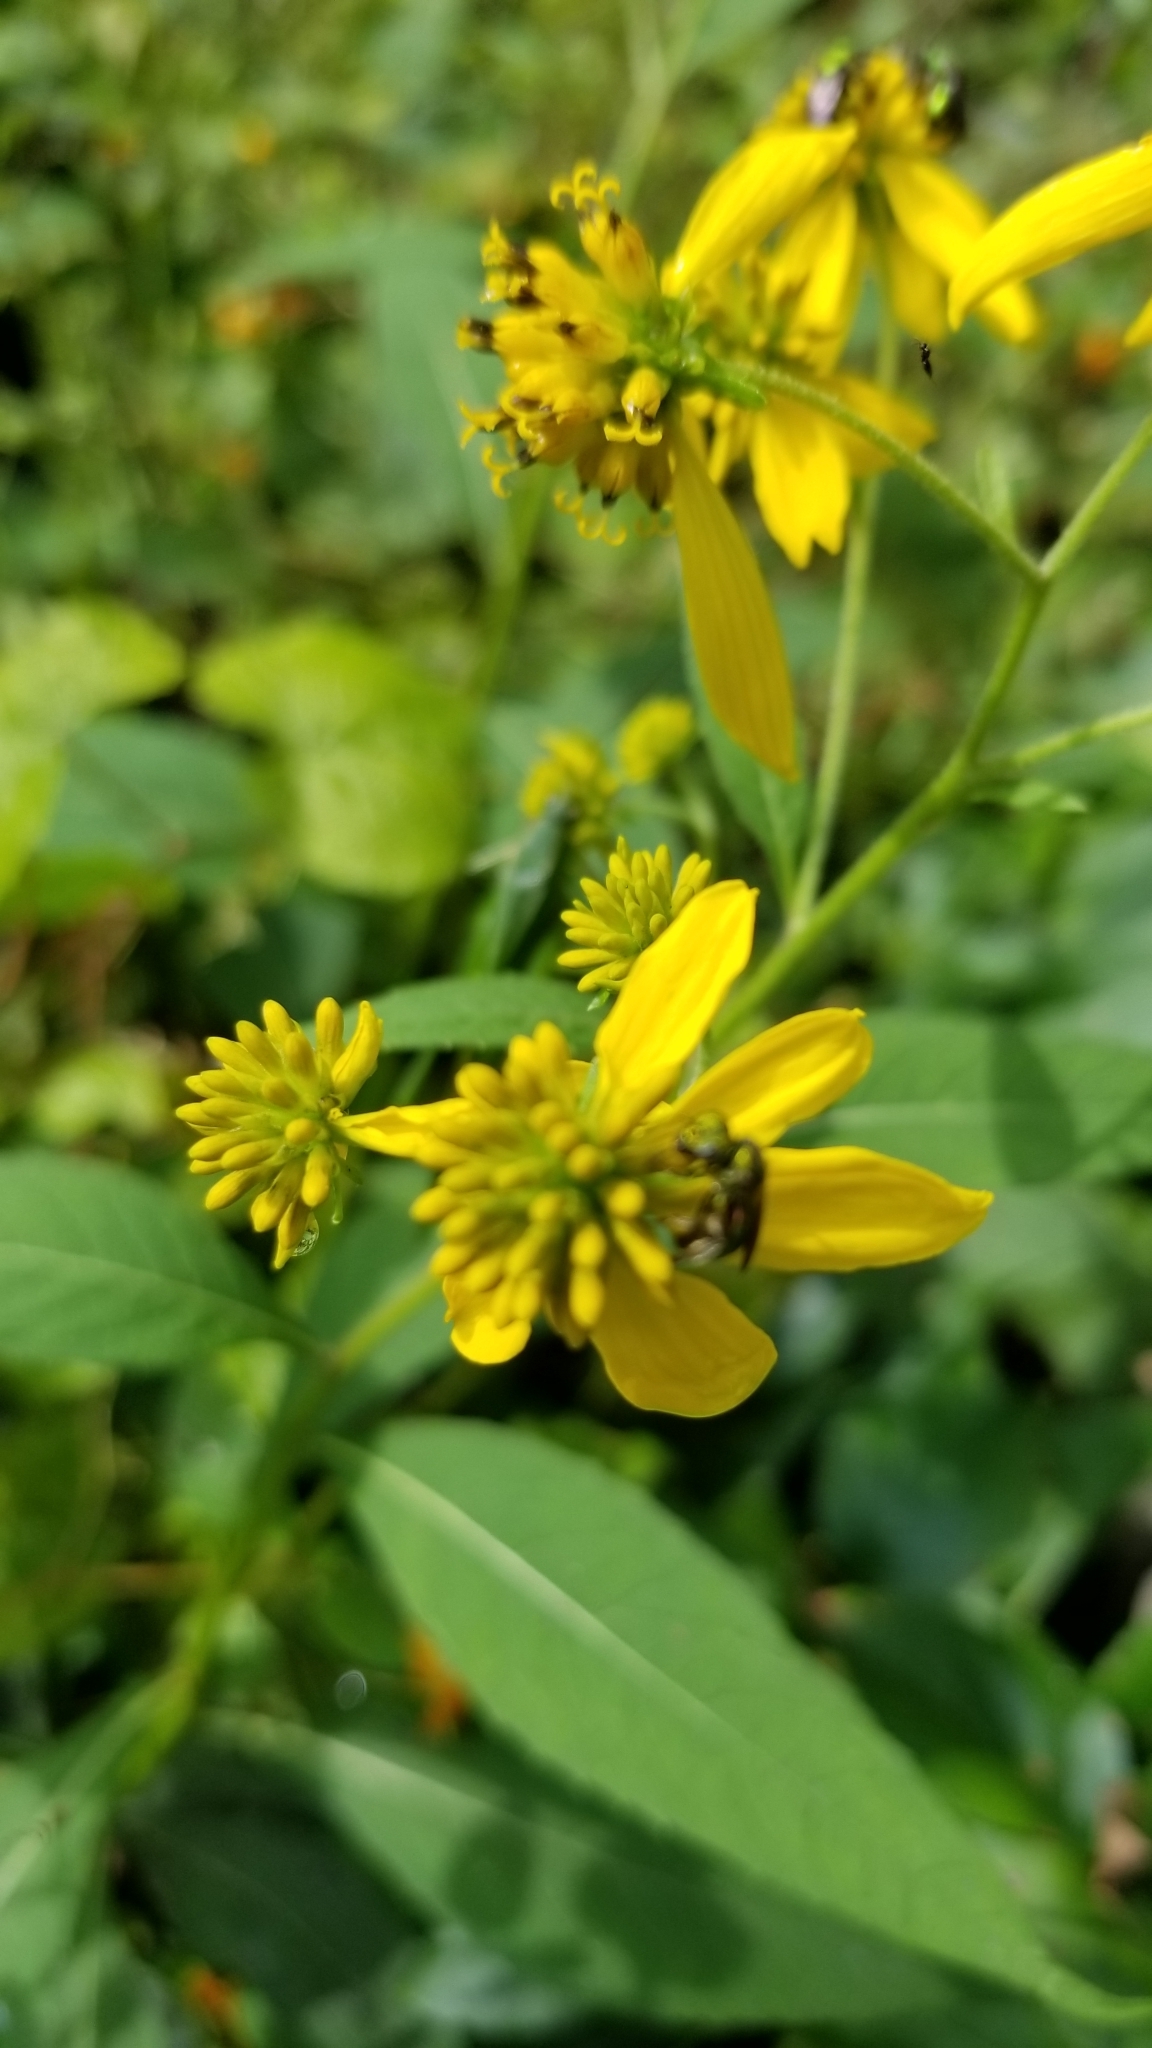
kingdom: Plantae
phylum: Tracheophyta
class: Magnoliopsida
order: Asterales
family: Asteraceae
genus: Verbesina
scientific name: Verbesina alternifolia
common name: Wingstem
